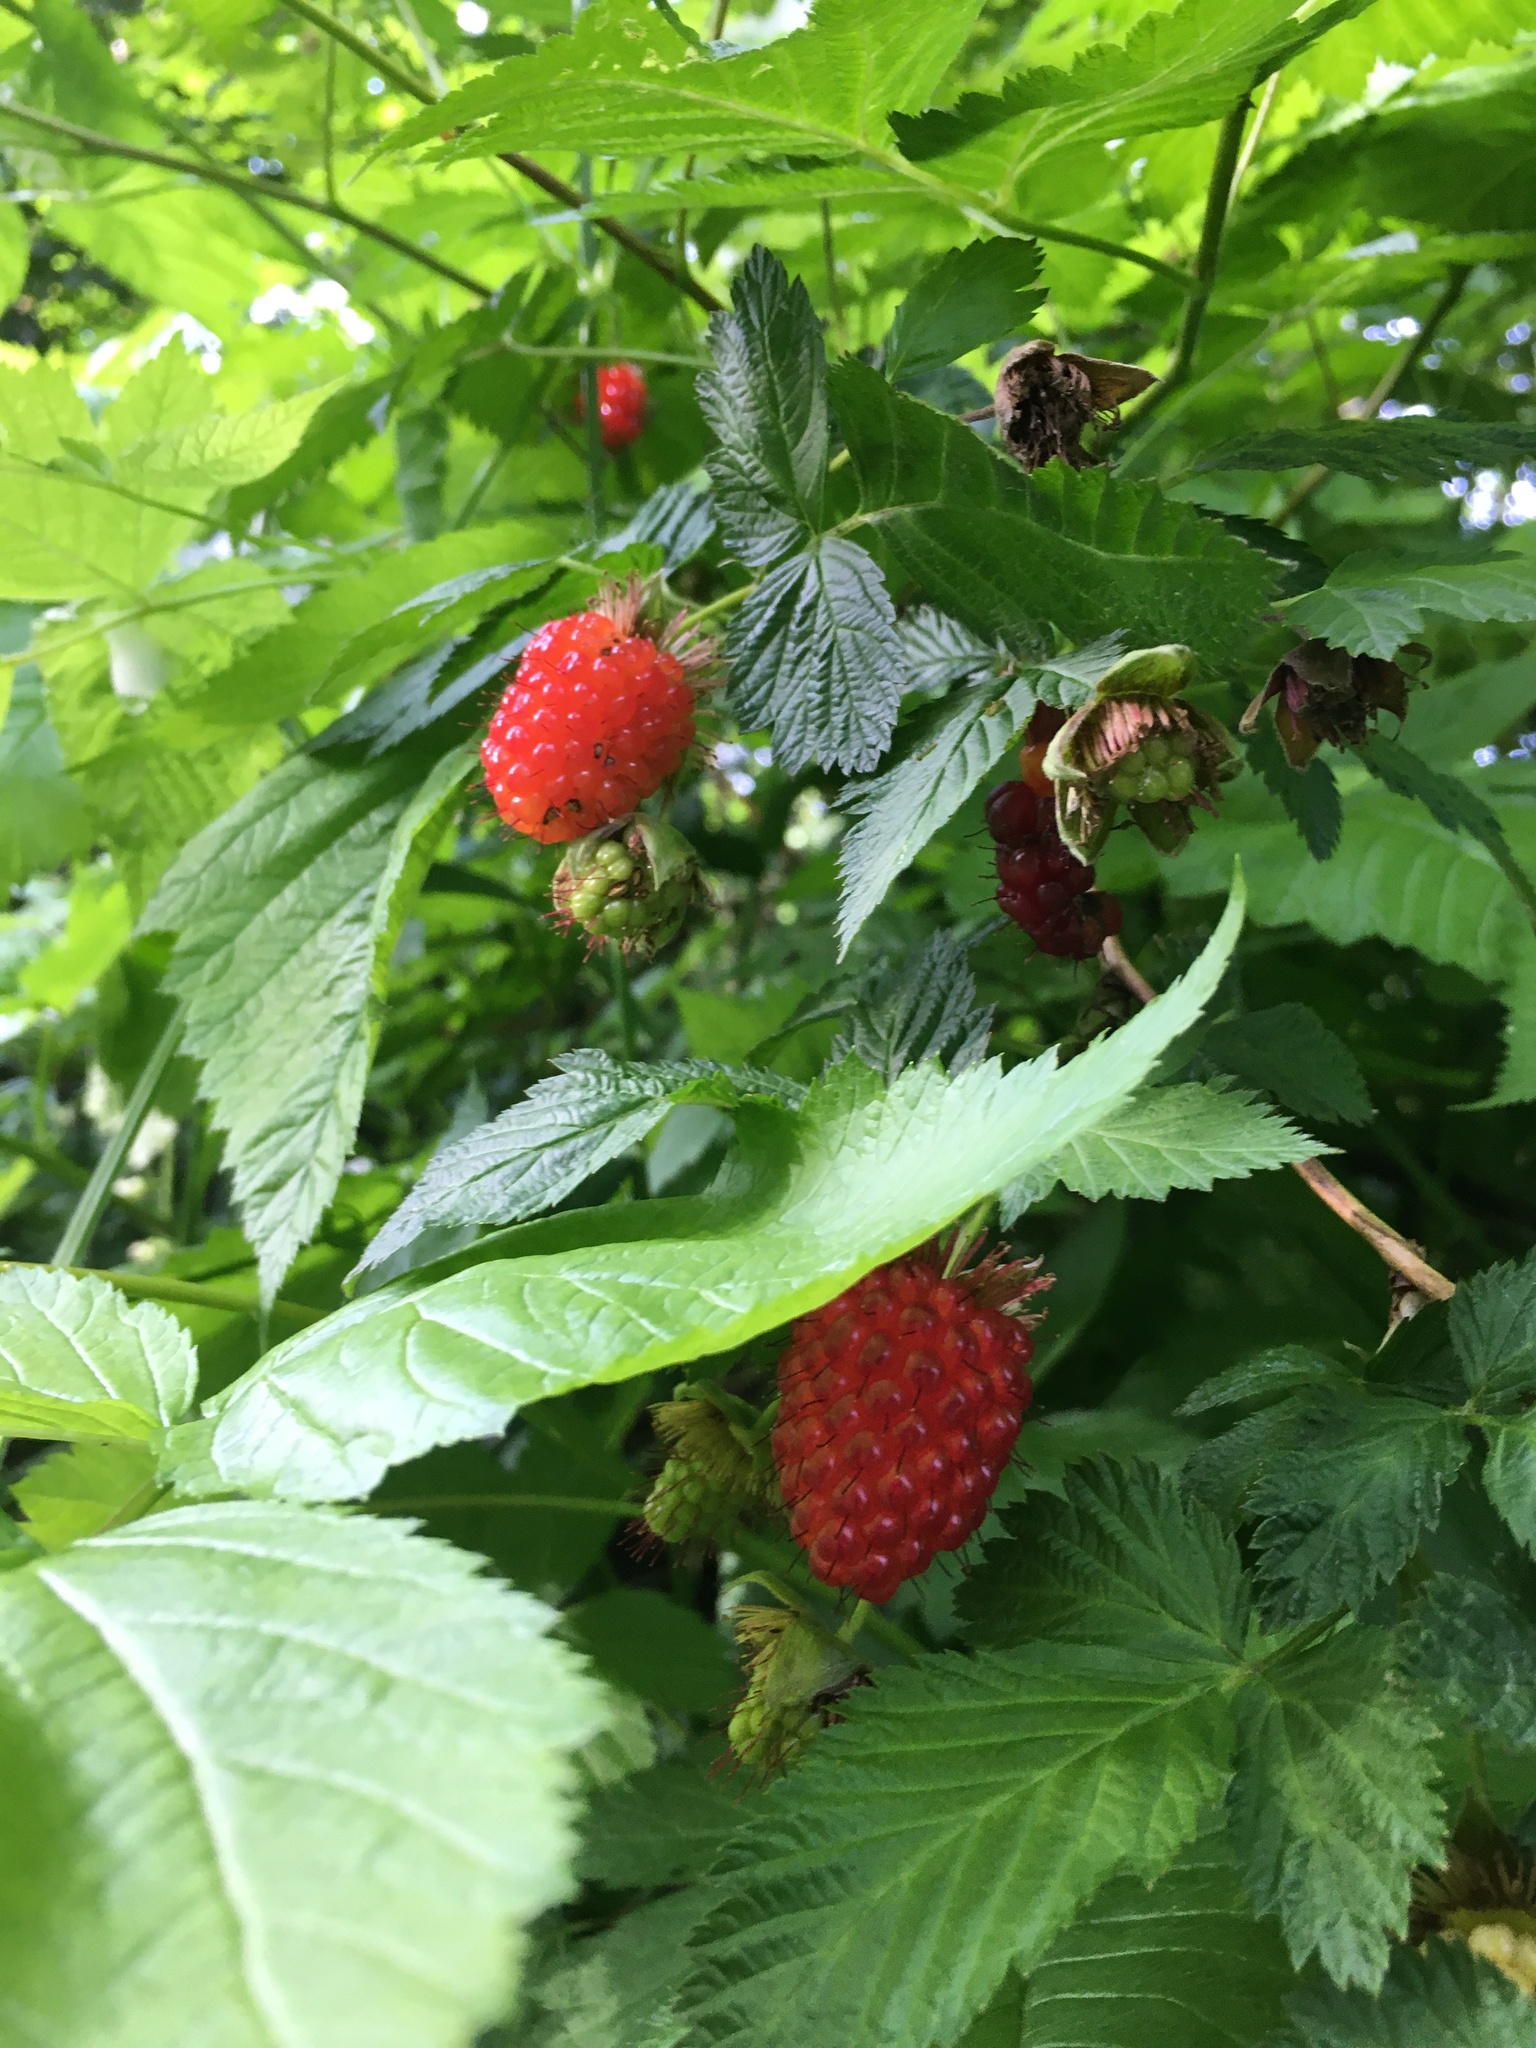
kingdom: Plantae
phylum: Tracheophyta
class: Magnoliopsida
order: Rosales
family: Rosaceae
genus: Rubus
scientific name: Rubus spectabilis
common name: Salmonberry
